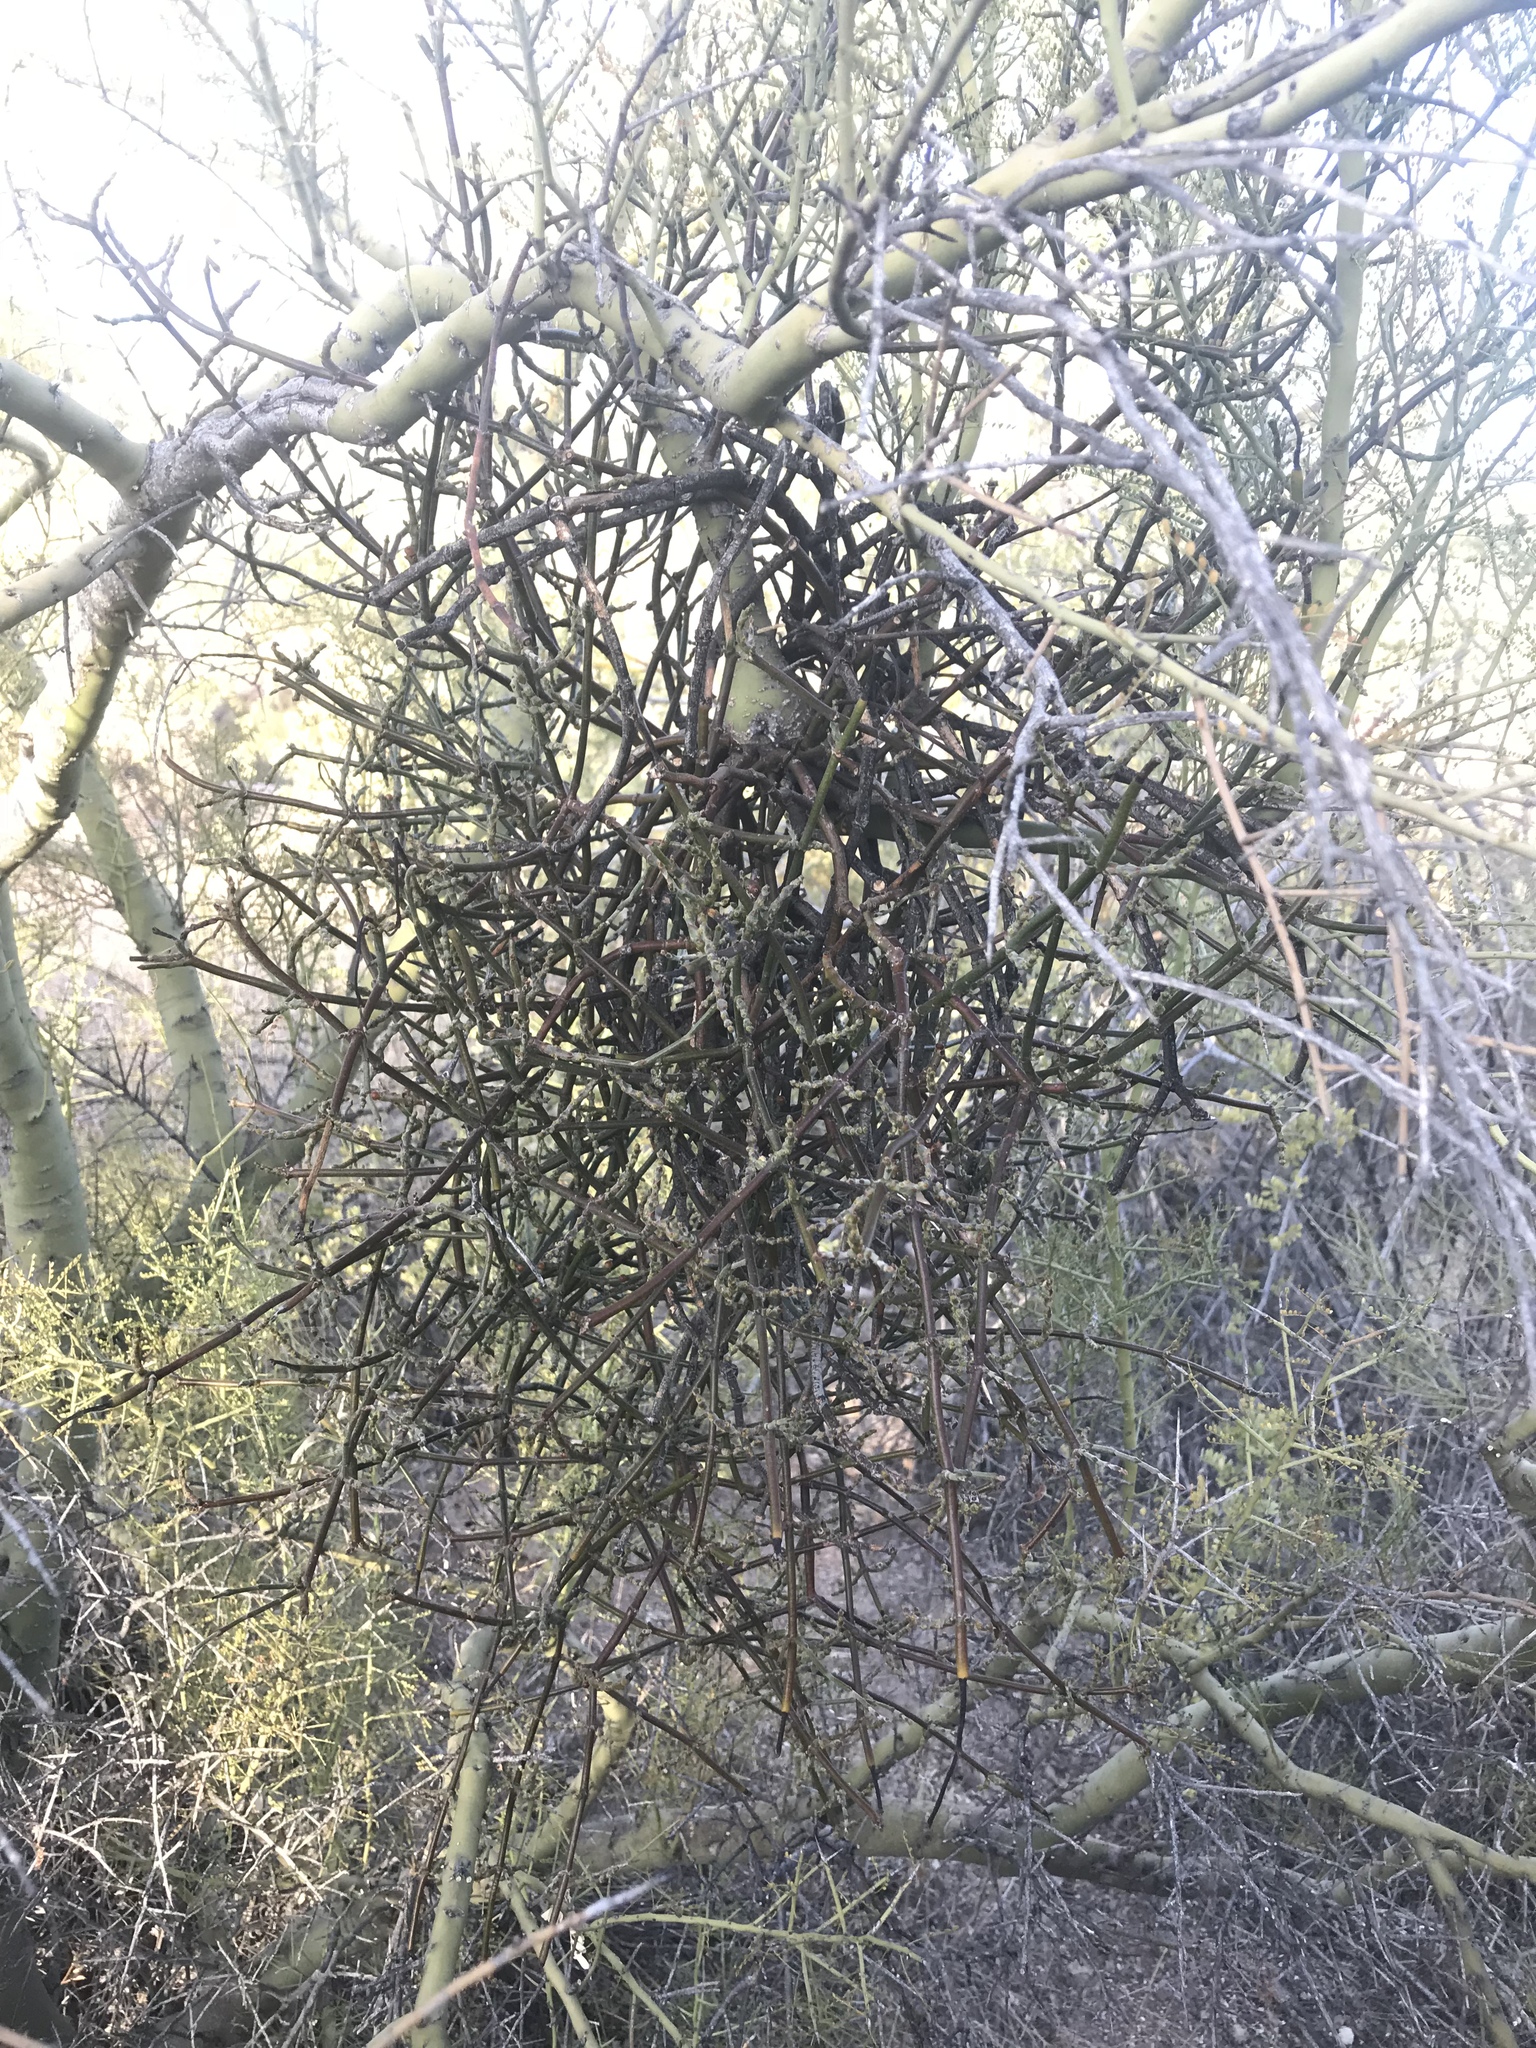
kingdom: Plantae
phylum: Tracheophyta
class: Magnoliopsida
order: Santalales
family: Viscaceae
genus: Phoradendron
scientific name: Phoradendron californicum
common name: Acacia mistletoe
